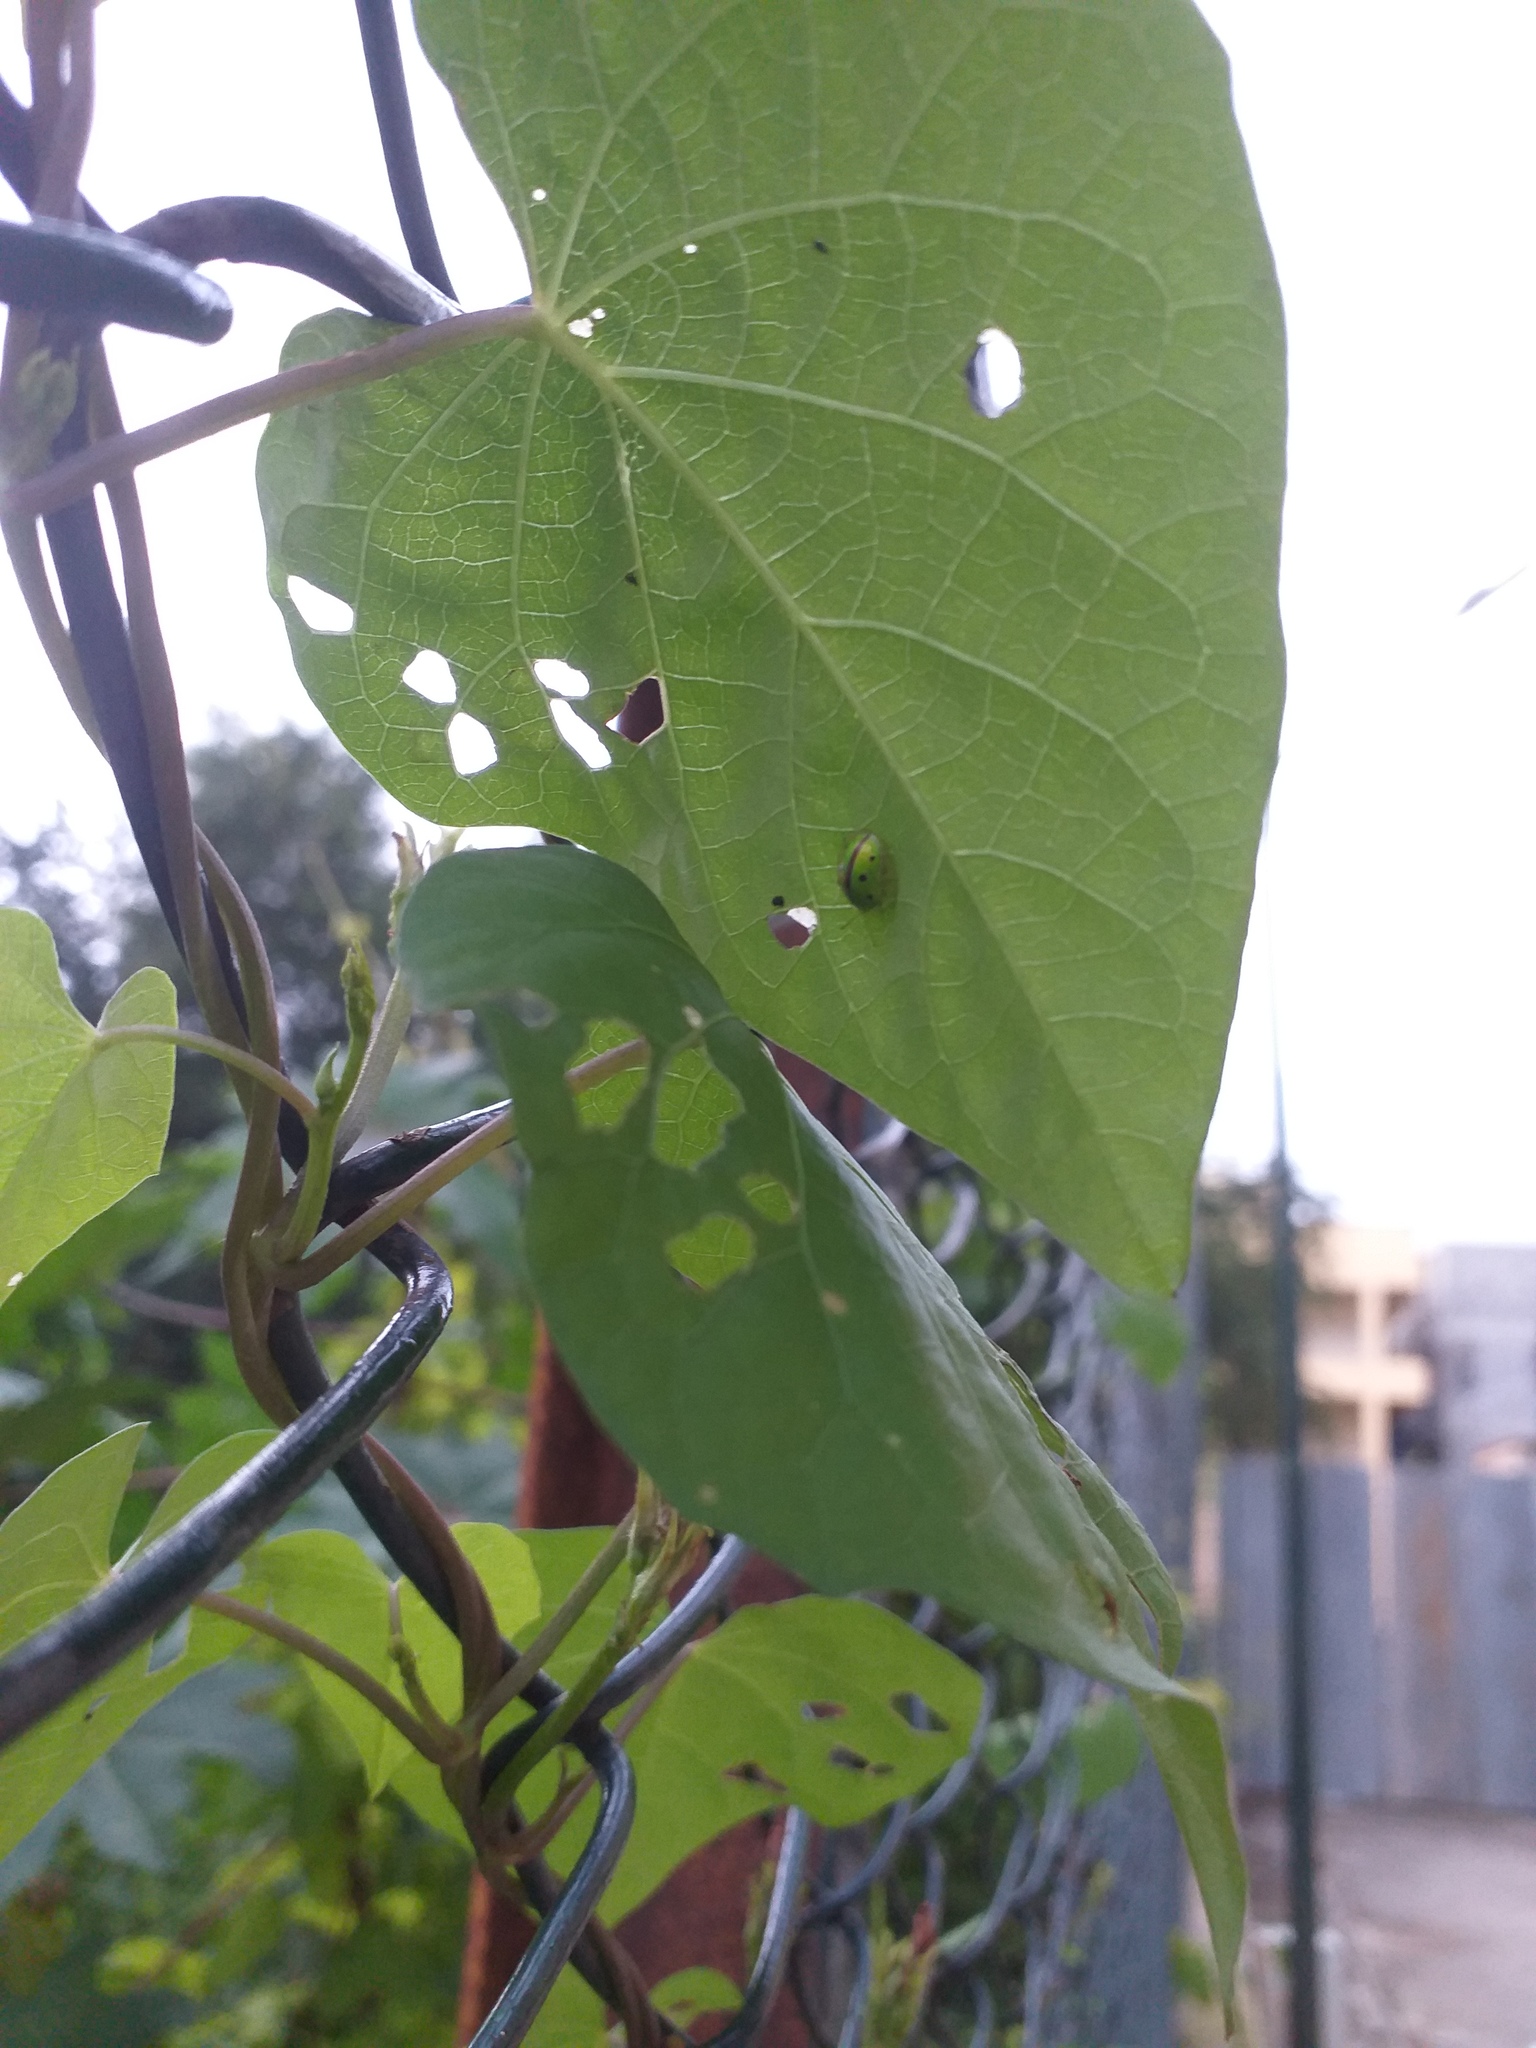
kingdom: Animalia
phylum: Arthropoda
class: Insecta
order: Coleoptera
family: Chrysomelidae
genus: Chiridopsis
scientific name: Chiridopsis bipunctata
